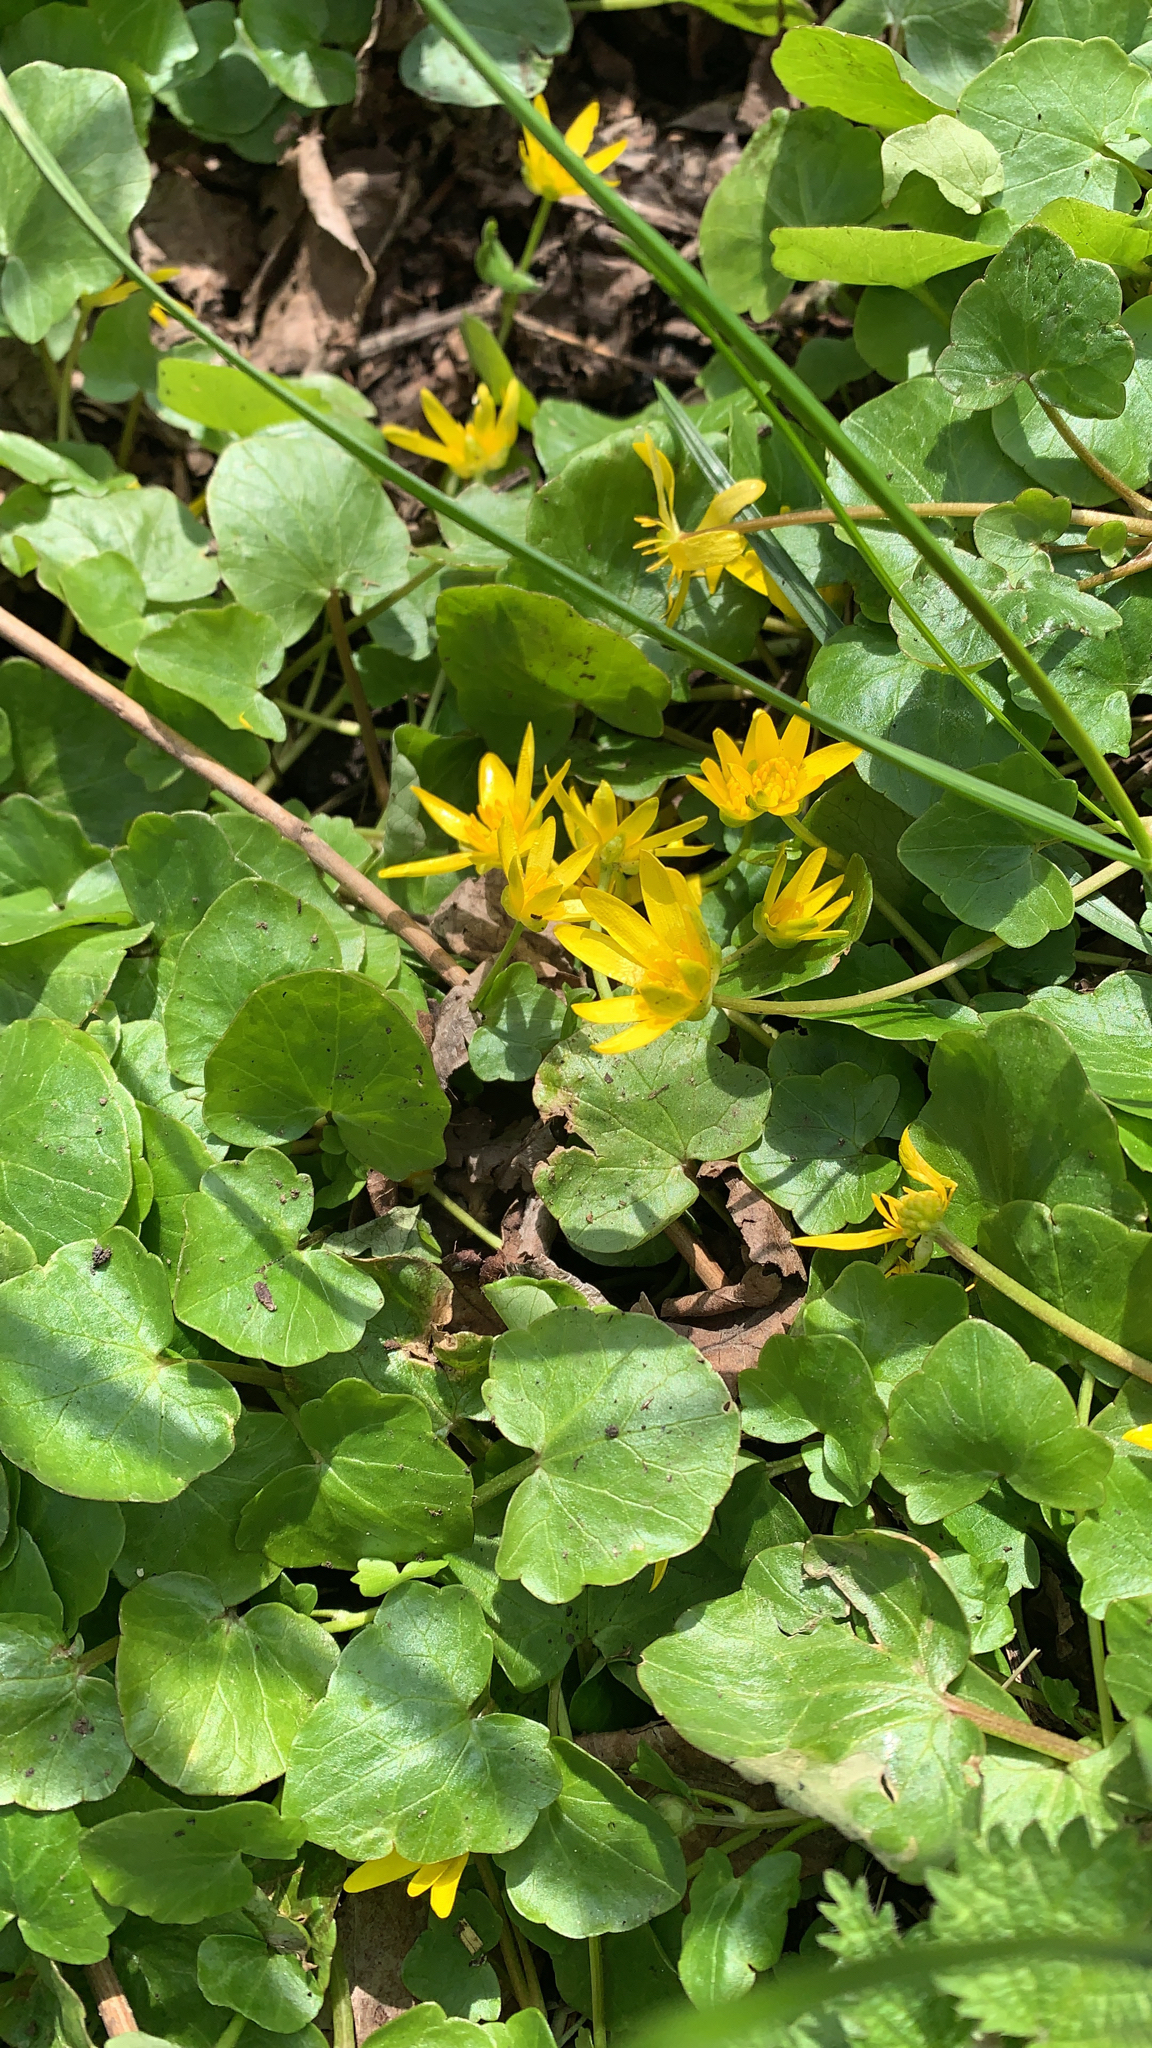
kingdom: Plantae
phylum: Tracheophyta
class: Magnoliopsida
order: Ranunculales
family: Ranunculaceae
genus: Ficaria
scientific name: Ficaria verna
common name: Lesser celandine
